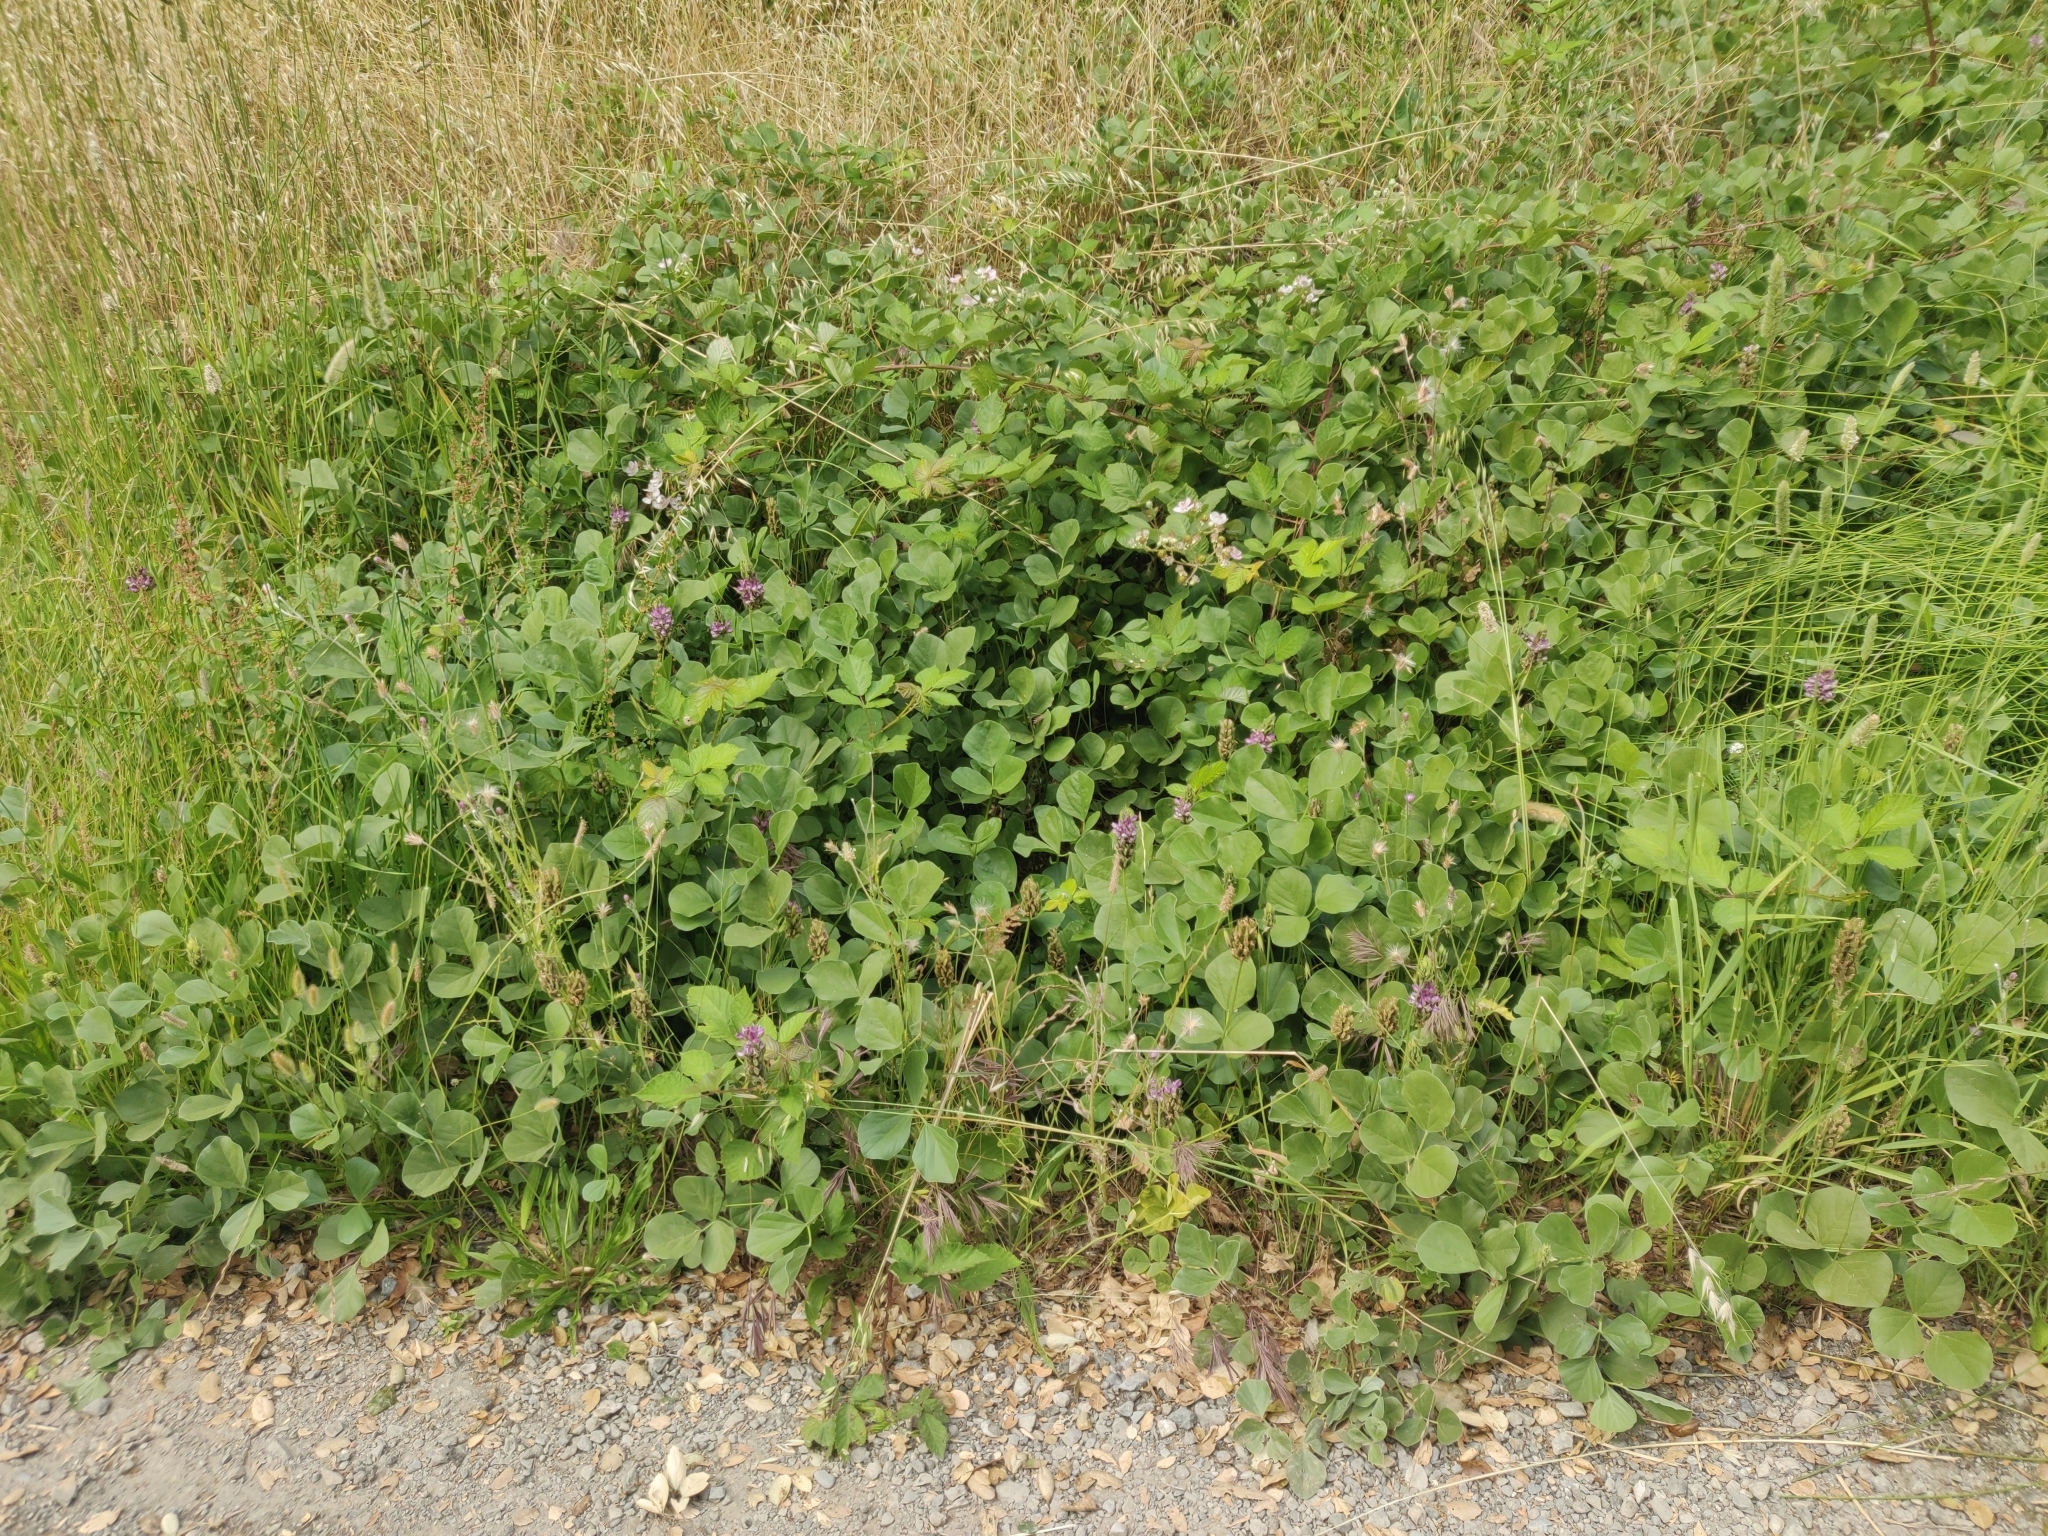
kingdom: Plantae
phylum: Tracheophyta
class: Magnoliopsida
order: Fabales
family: Fabaceae
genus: Hoita
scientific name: Hoita orbicularis
